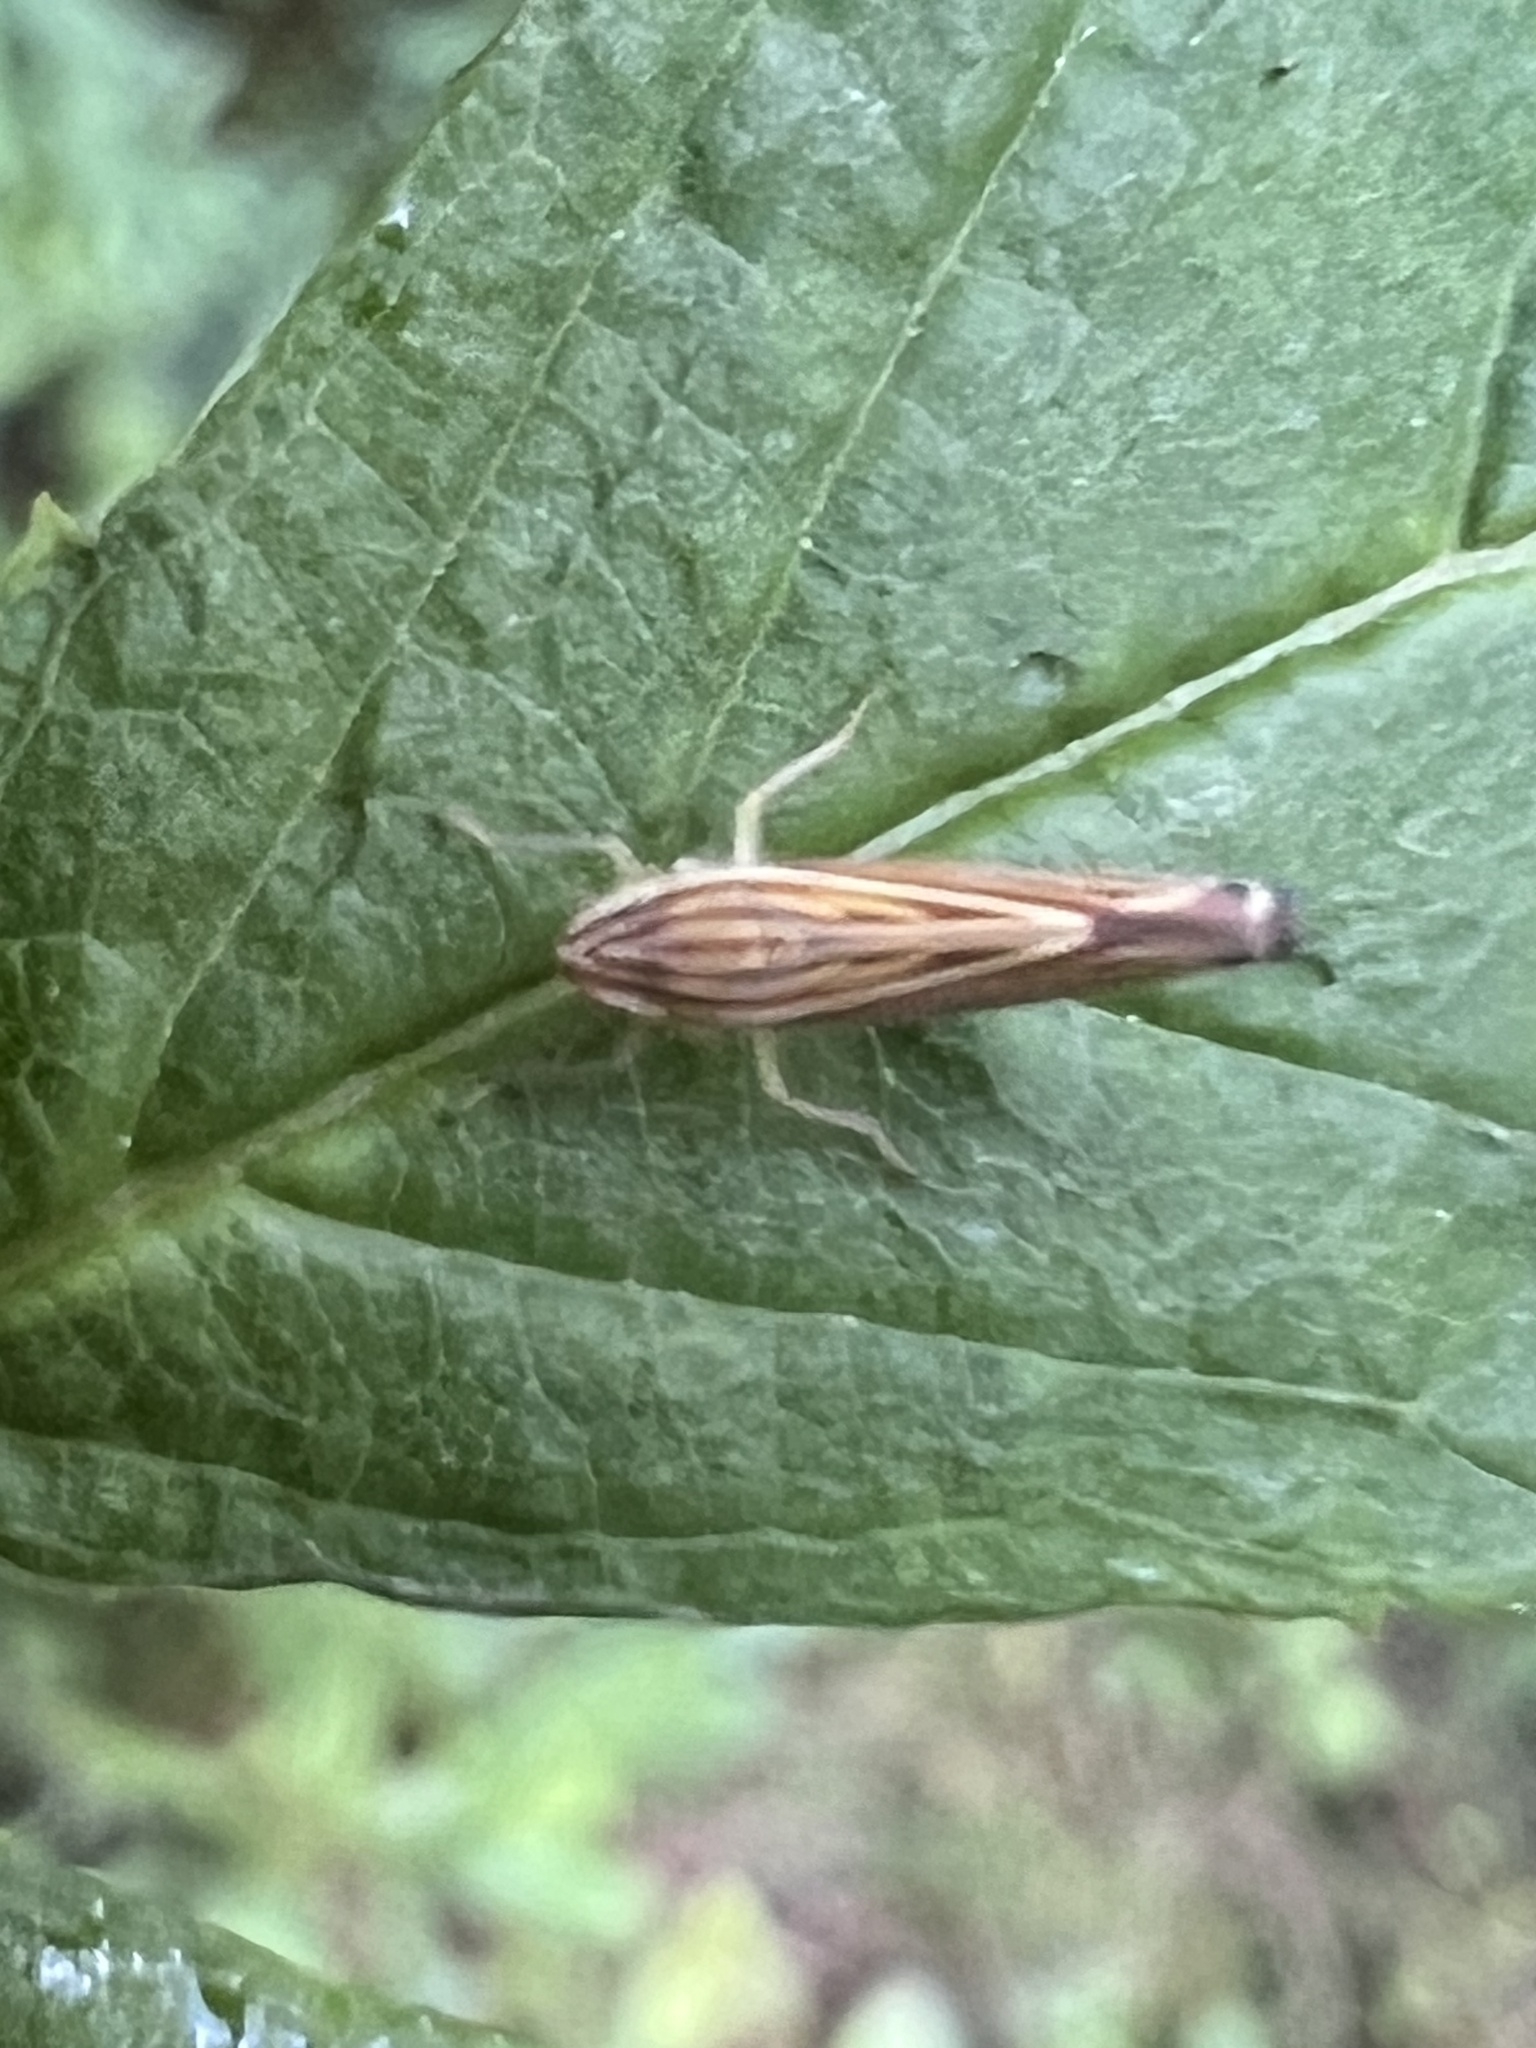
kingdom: Animalia
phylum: Arthropoda
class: Insecta
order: Hemiptera
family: Cicadellidae
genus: Sibovia
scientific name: Sibovia occatoria
